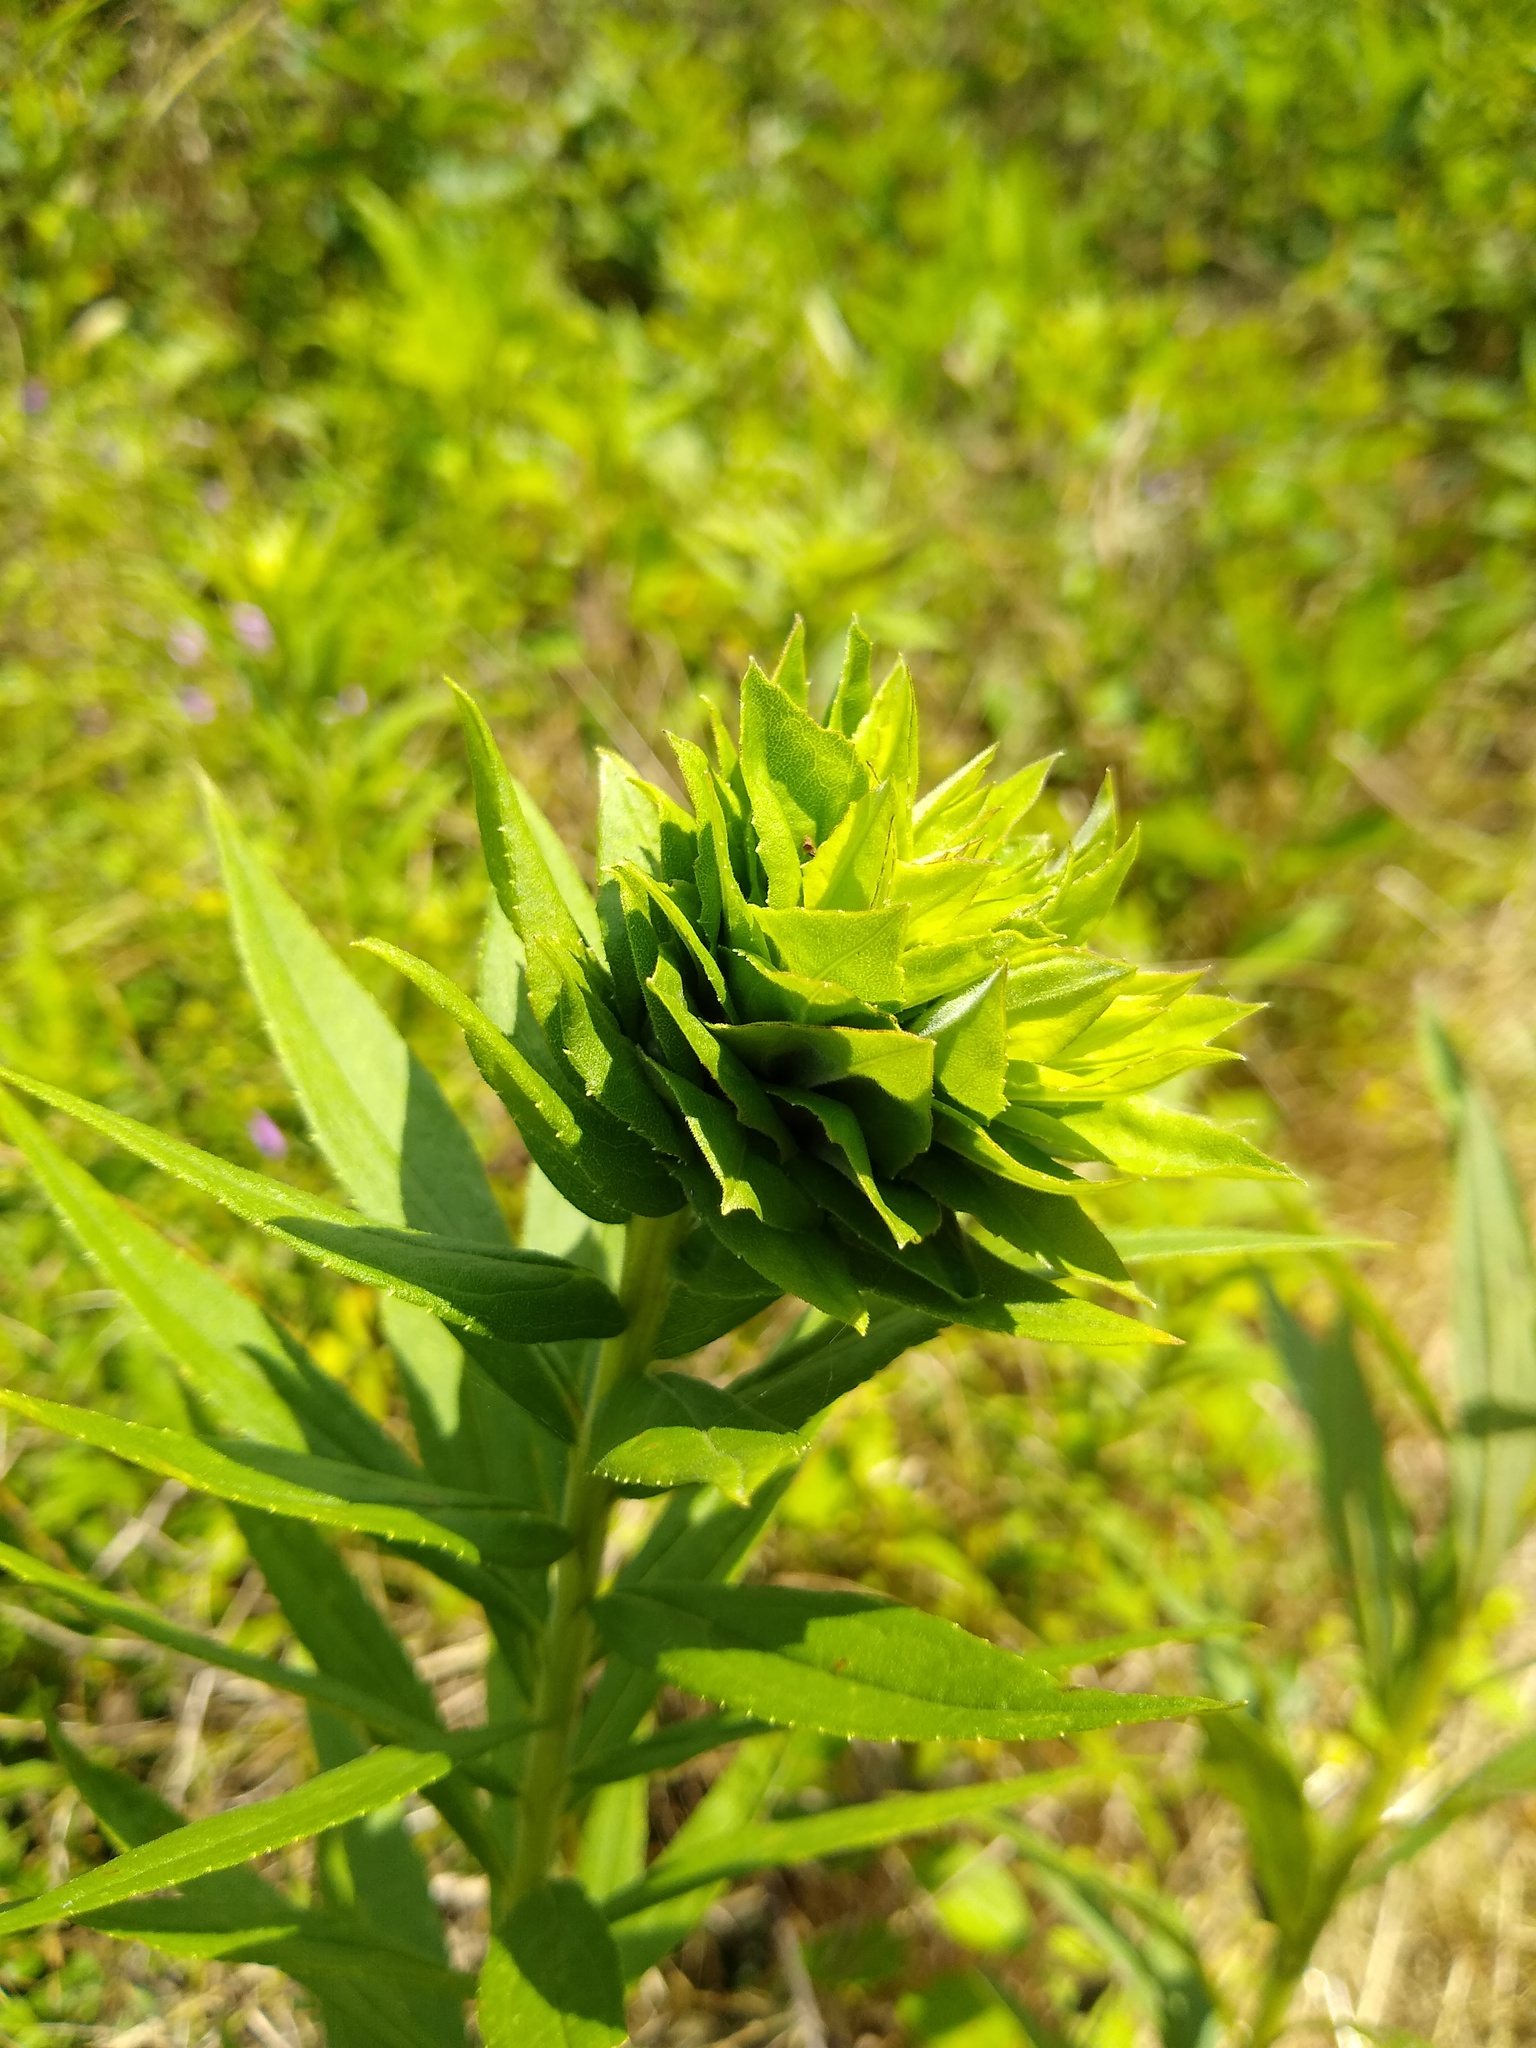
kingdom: Animalia
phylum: Arthropoda
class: Insecta
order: Diptera
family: Cecidomyiidae
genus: Rhopalomyia
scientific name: Rhopalomyia solidaginis
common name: Goldenrod bunch gall midge
